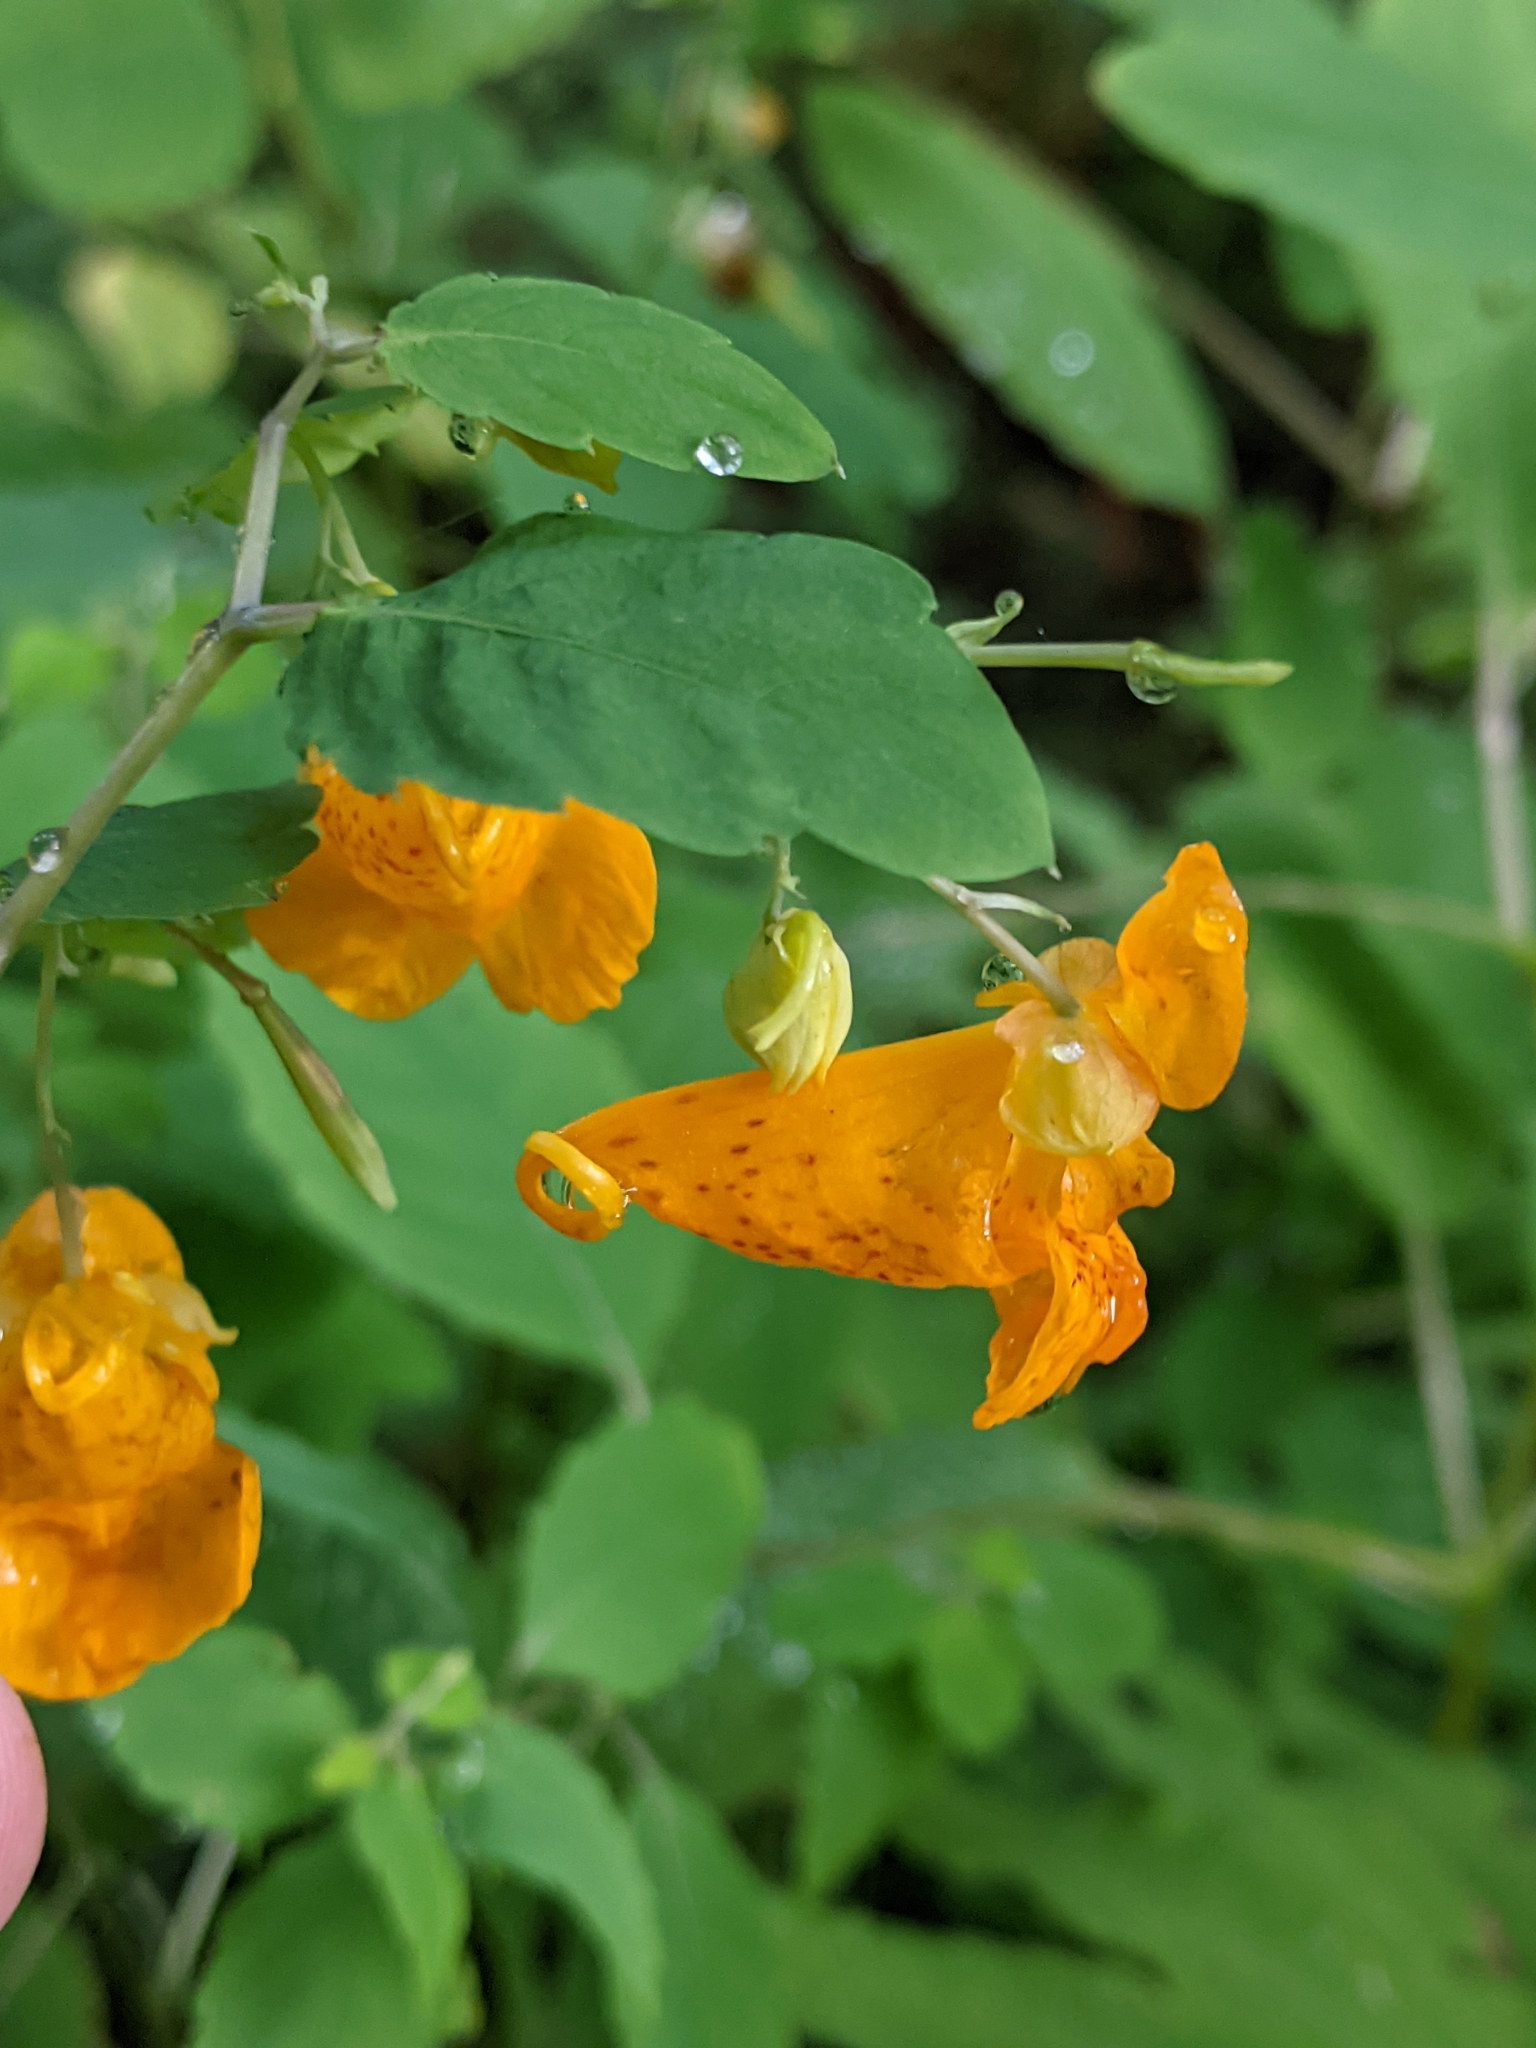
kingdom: Plantae
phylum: Tracheophyta
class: Magnoliopsida
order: Ericales
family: Balsaminaceae
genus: Impatiens
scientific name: Impatiens capensis
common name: Orange balsam
